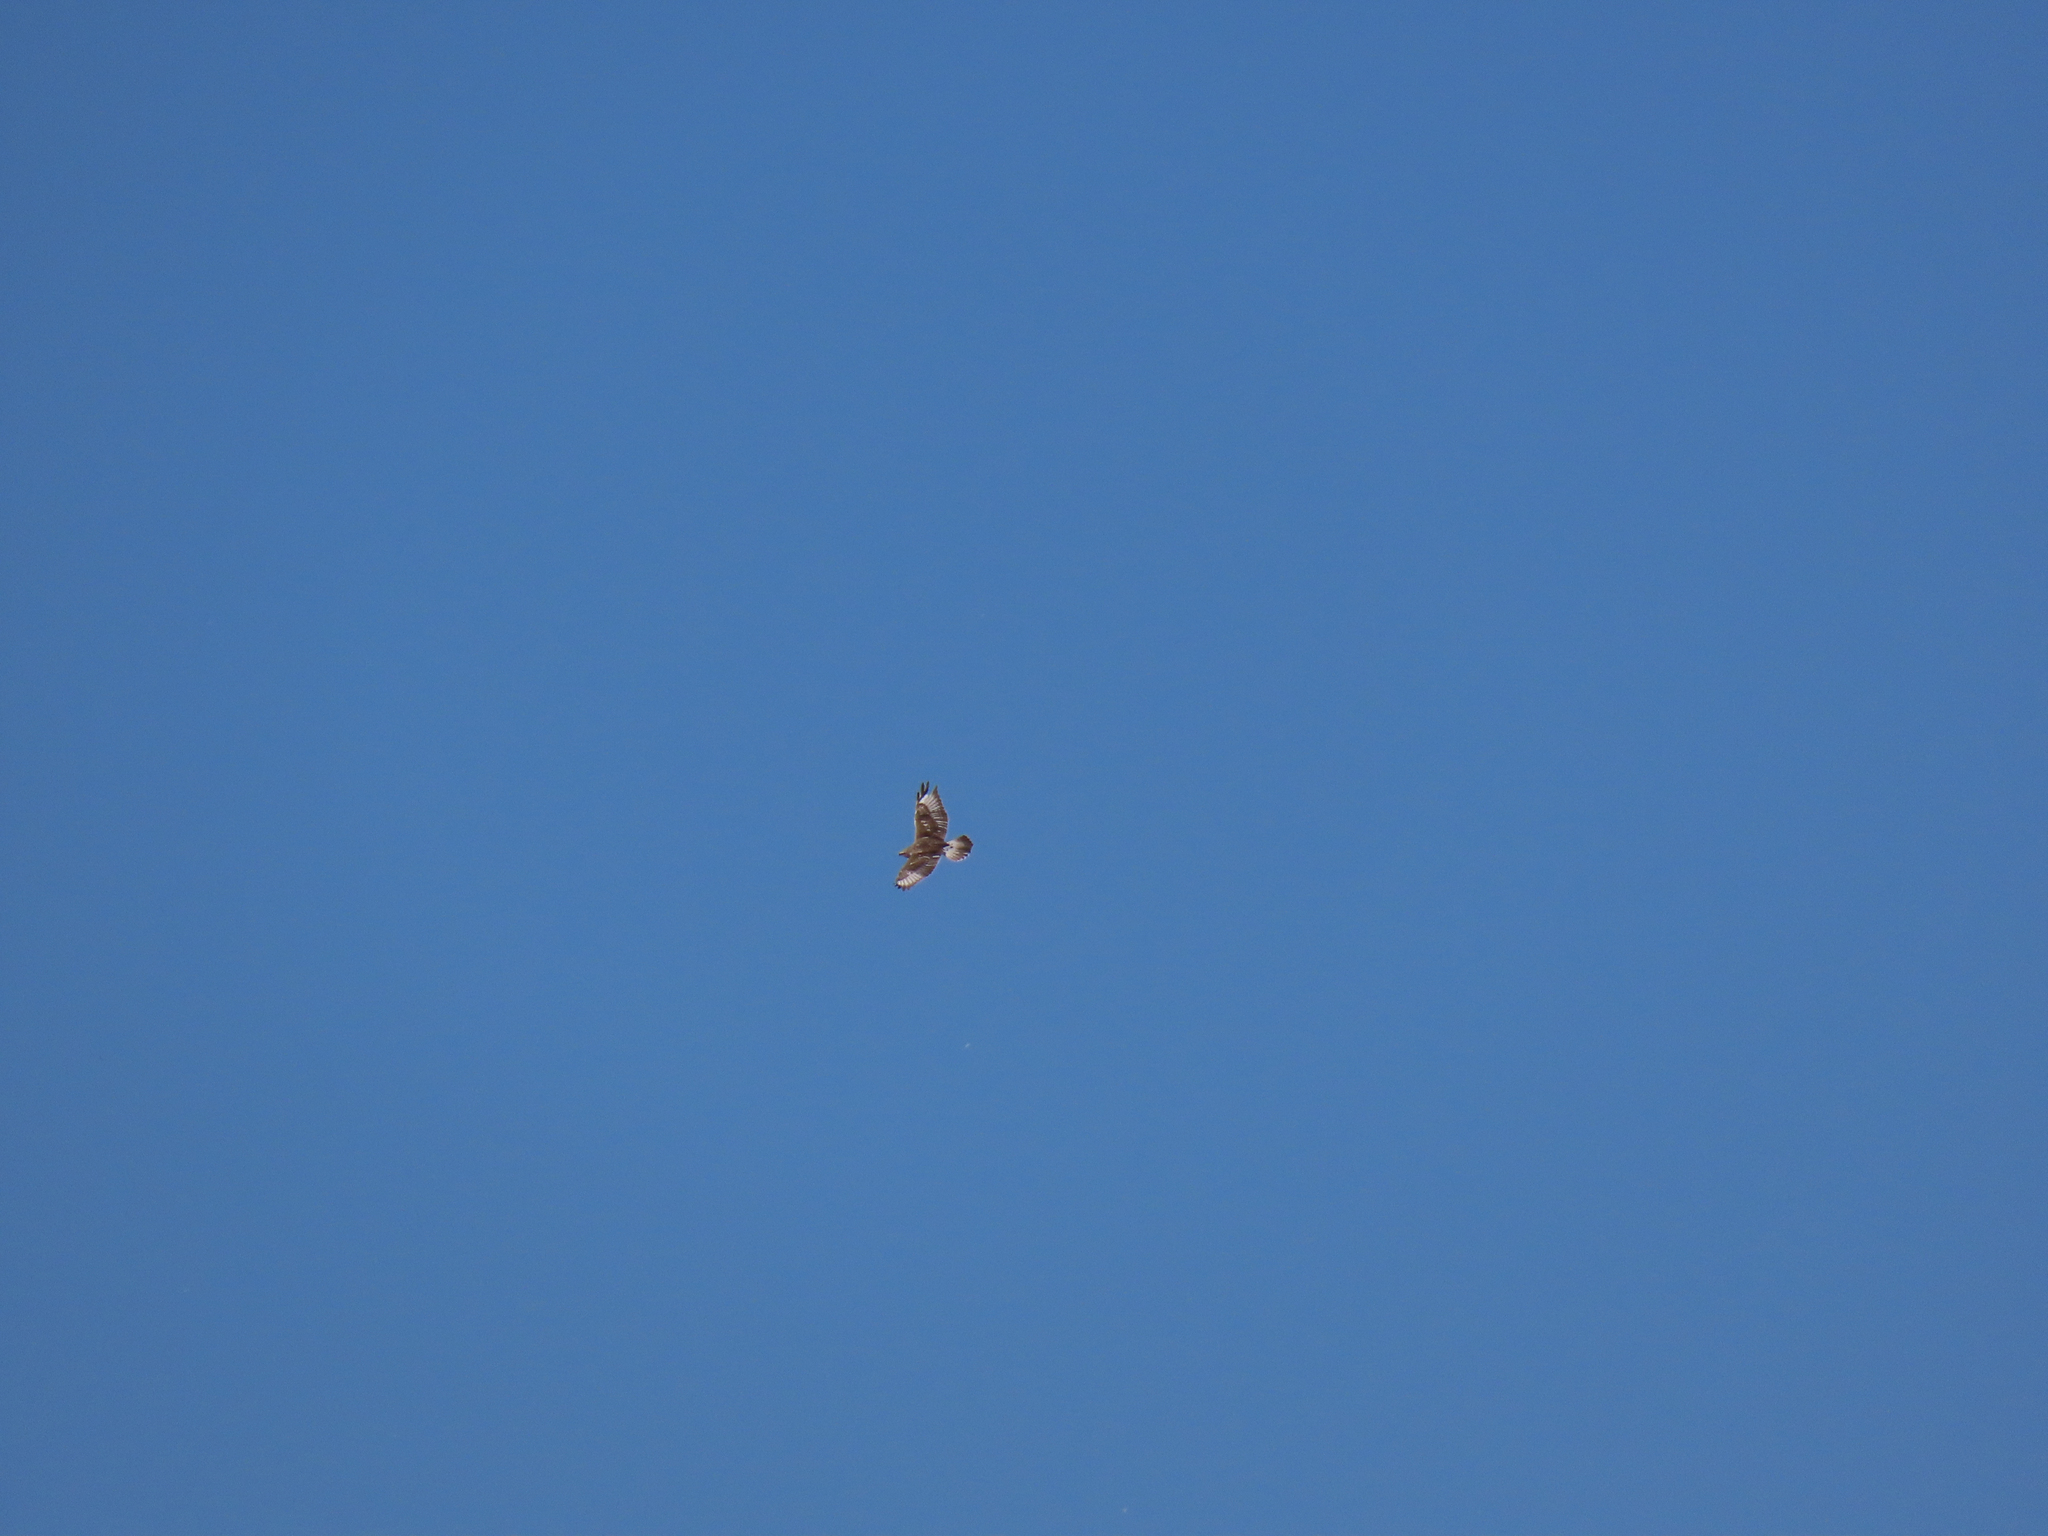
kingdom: Animalia
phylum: Chordata
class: Aves
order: Accipitriformes
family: Accipitridae
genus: Buteo
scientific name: Buteo regalis
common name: Ferruginous hawk
